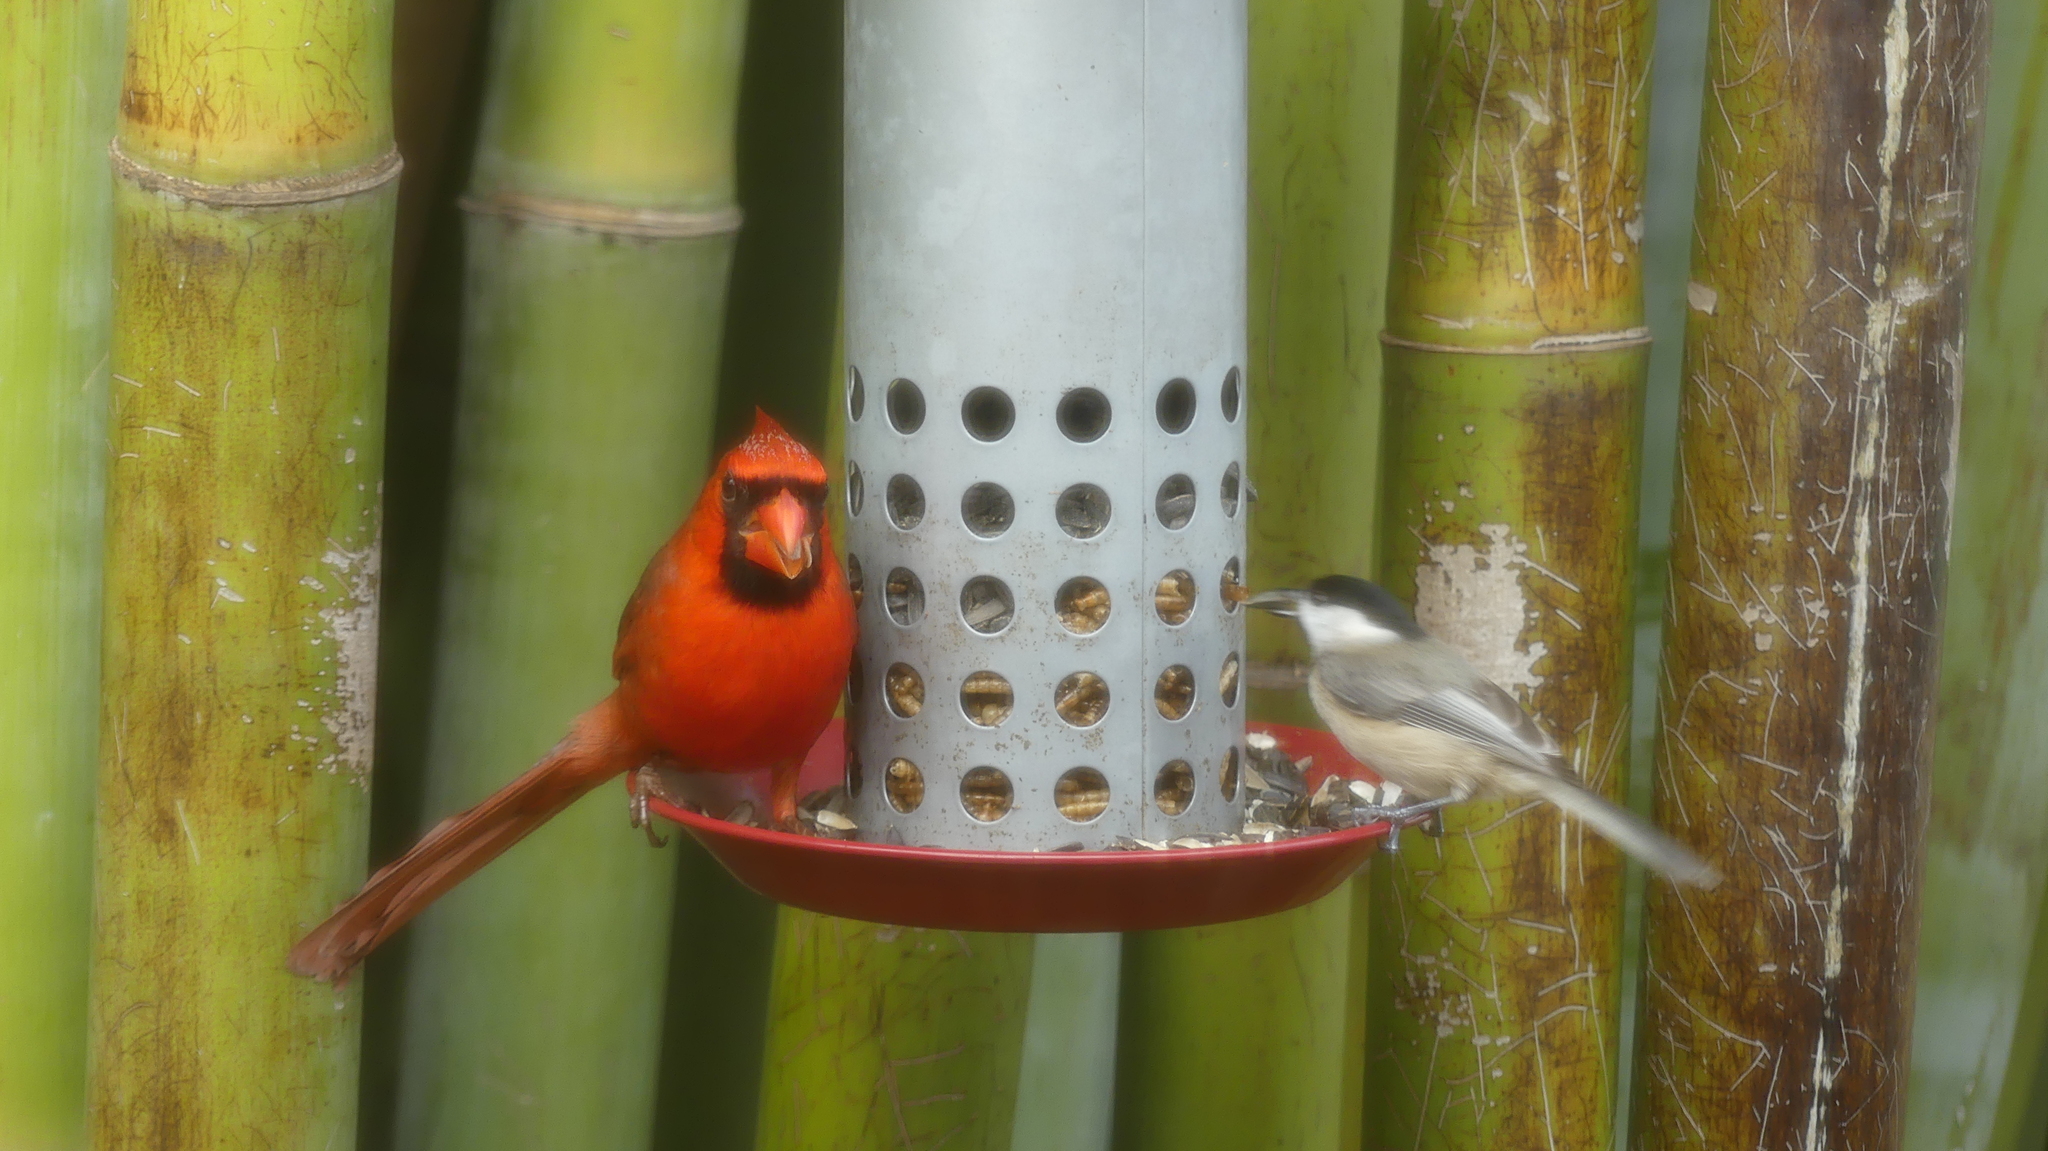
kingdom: Animalia
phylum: Chordata
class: Aves
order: Passeriformes
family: Paridae
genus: Poecile
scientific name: Poecile carolinensis
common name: Carolina chickadee
